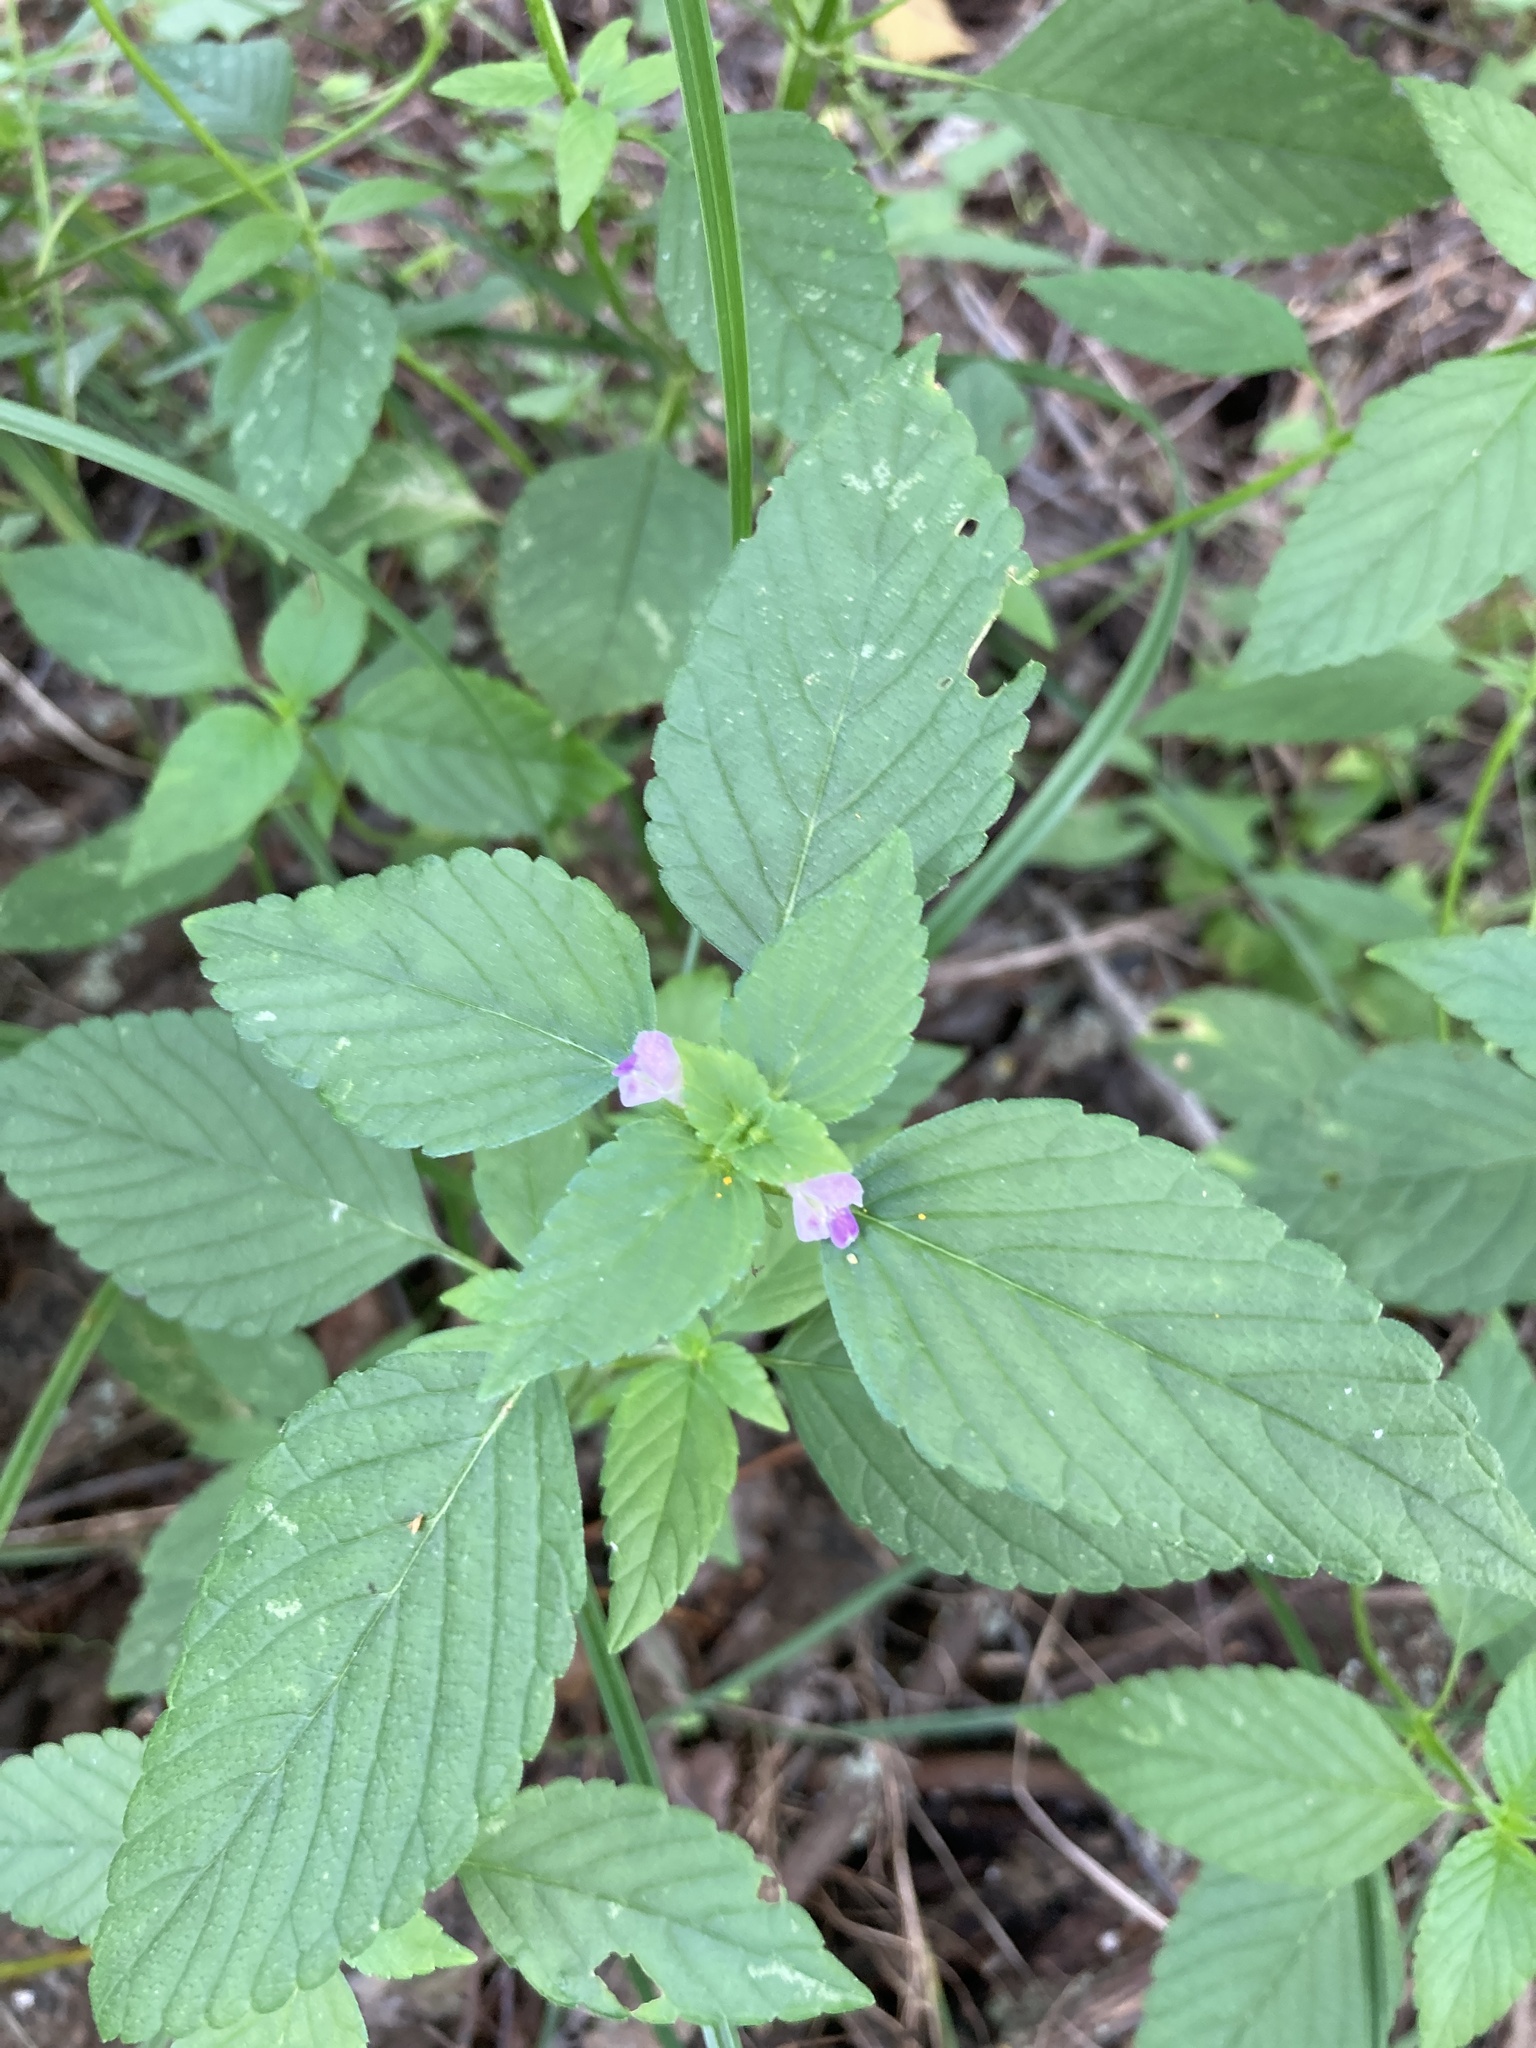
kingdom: Plantae
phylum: Tracheophyta
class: Magnoliopsida
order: Lamiales
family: Lamiaceae
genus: Galeopsis
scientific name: Galeopsis bifida
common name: Bifid hemp-nettle
